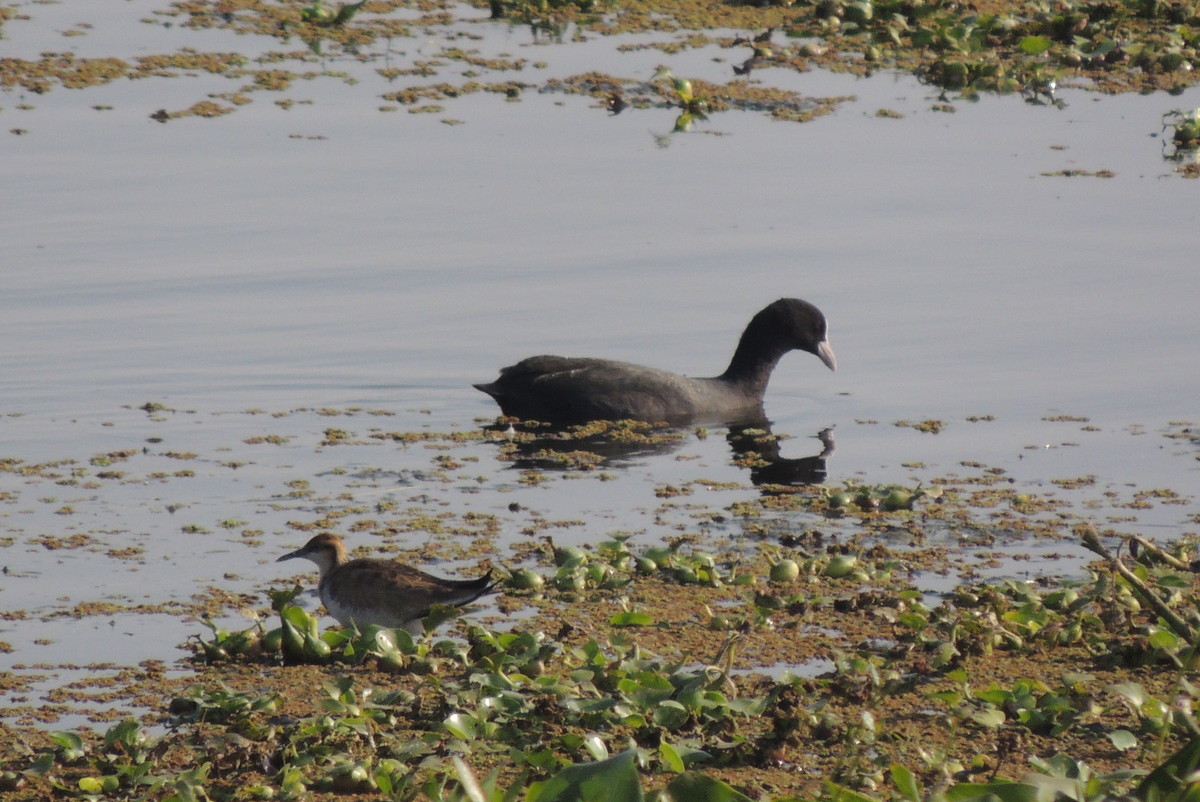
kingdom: Animalia
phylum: Chordata
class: Aves
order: Gruiformes
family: Rallidae
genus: Fulica
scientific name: Fulica atra
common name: Eurasian coot
